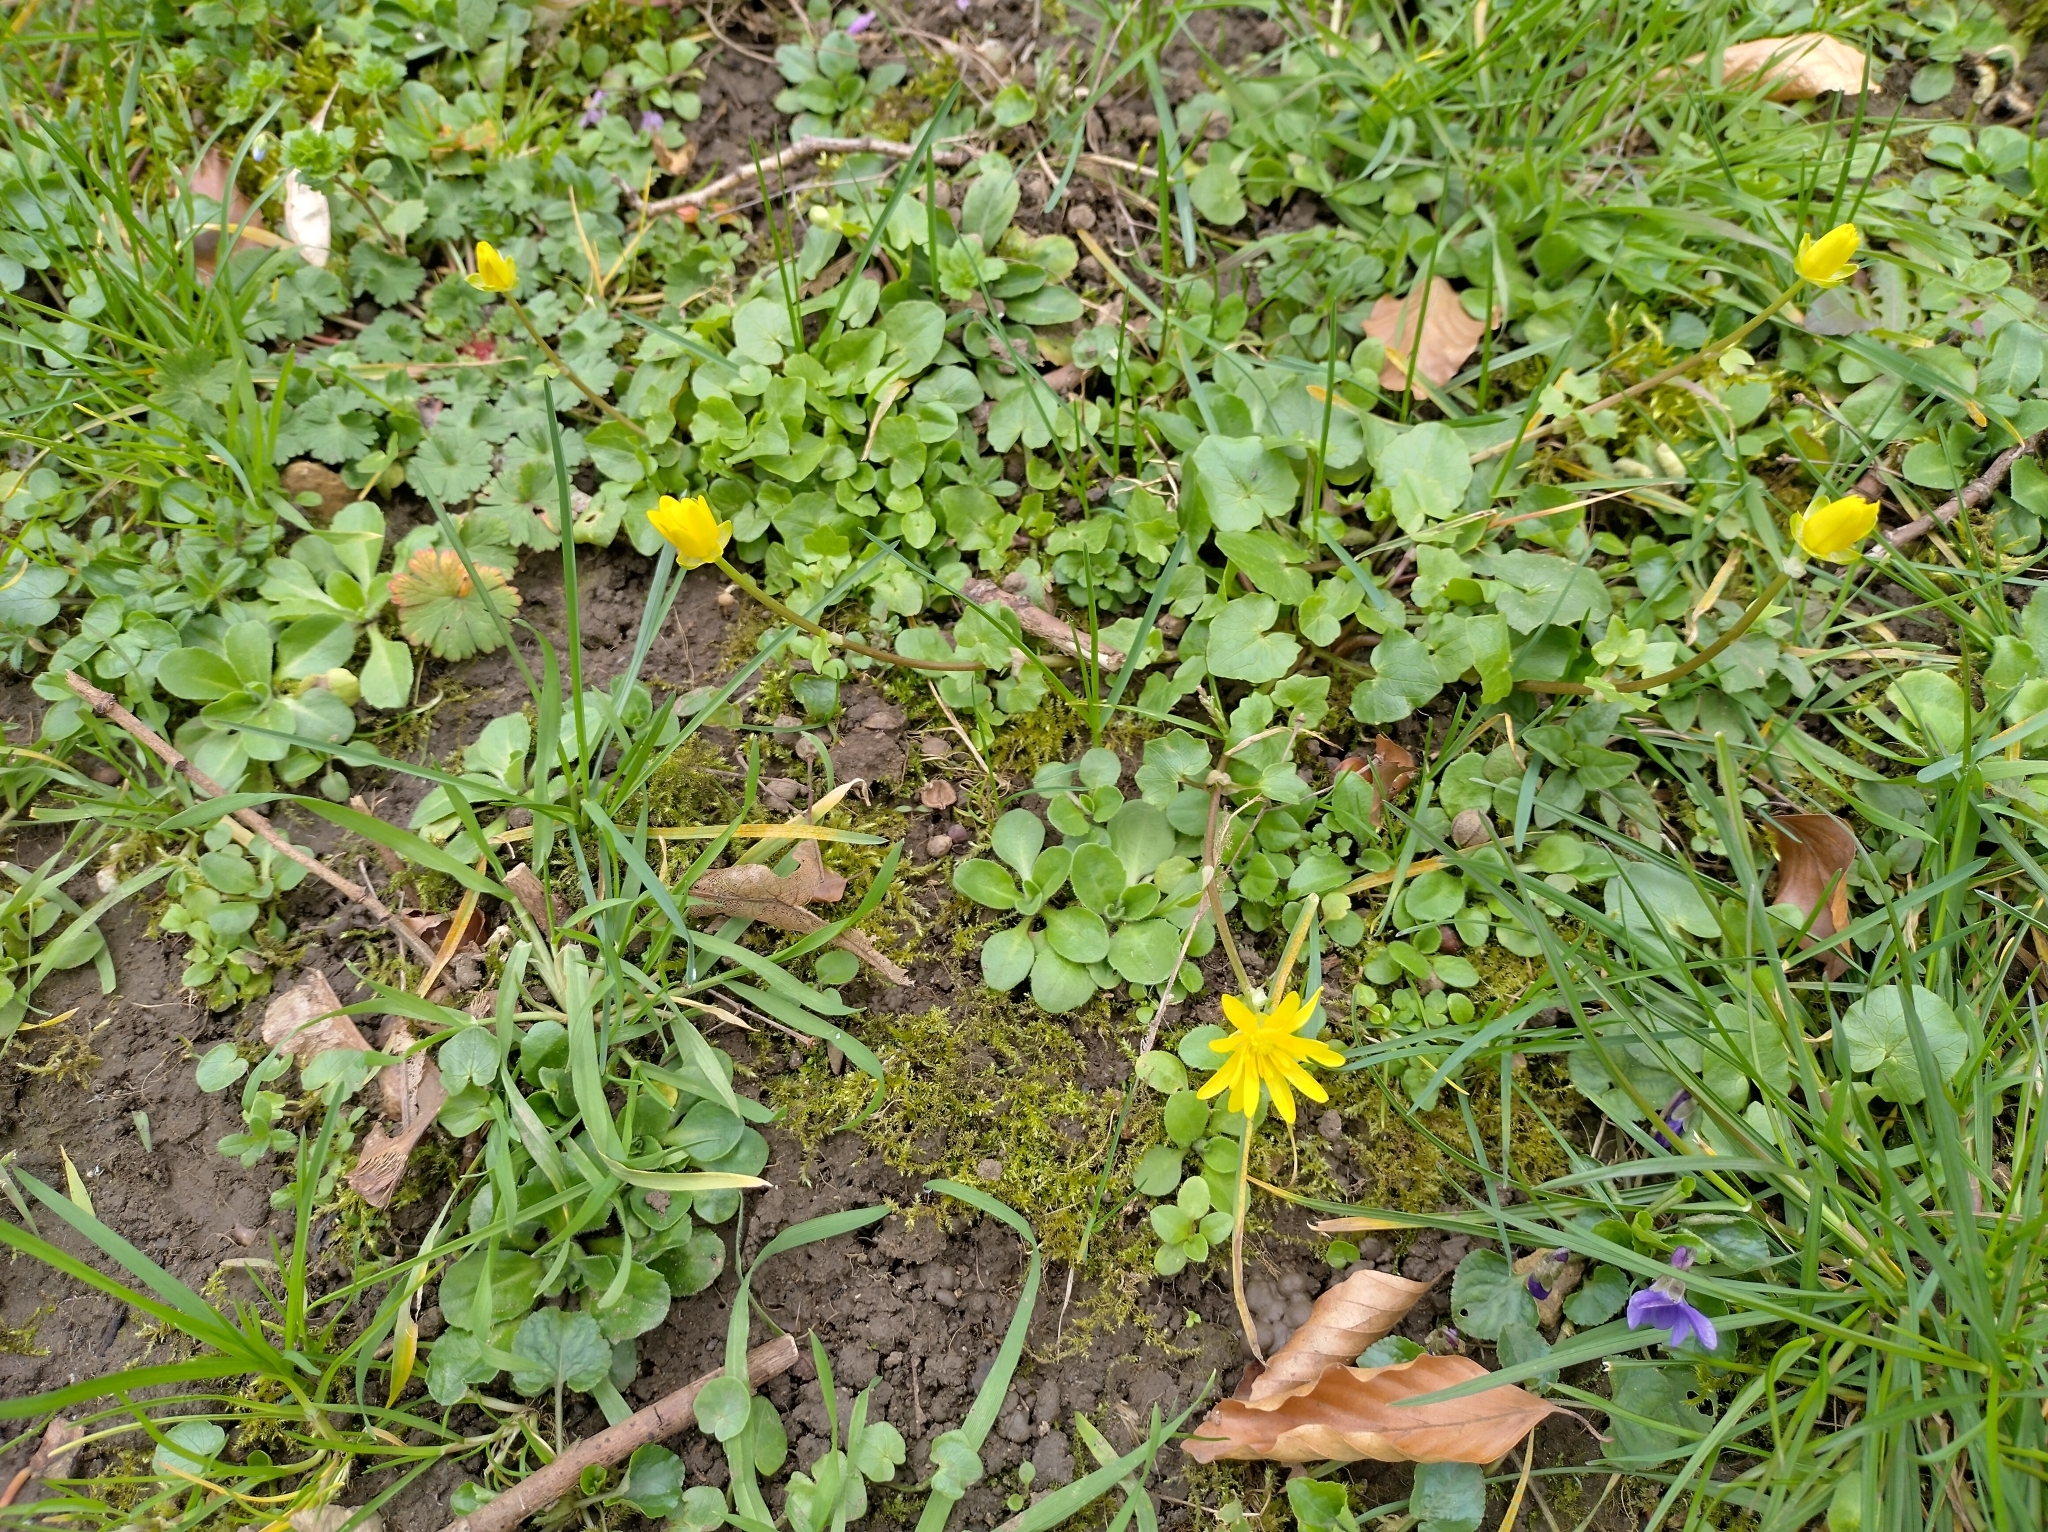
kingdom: Plantae
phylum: Tracheophyta
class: Magnoliopsida
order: Ranunculales
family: Ranunculaceae
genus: Ficaria
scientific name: Ficaria verna
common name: Lesser celandine
